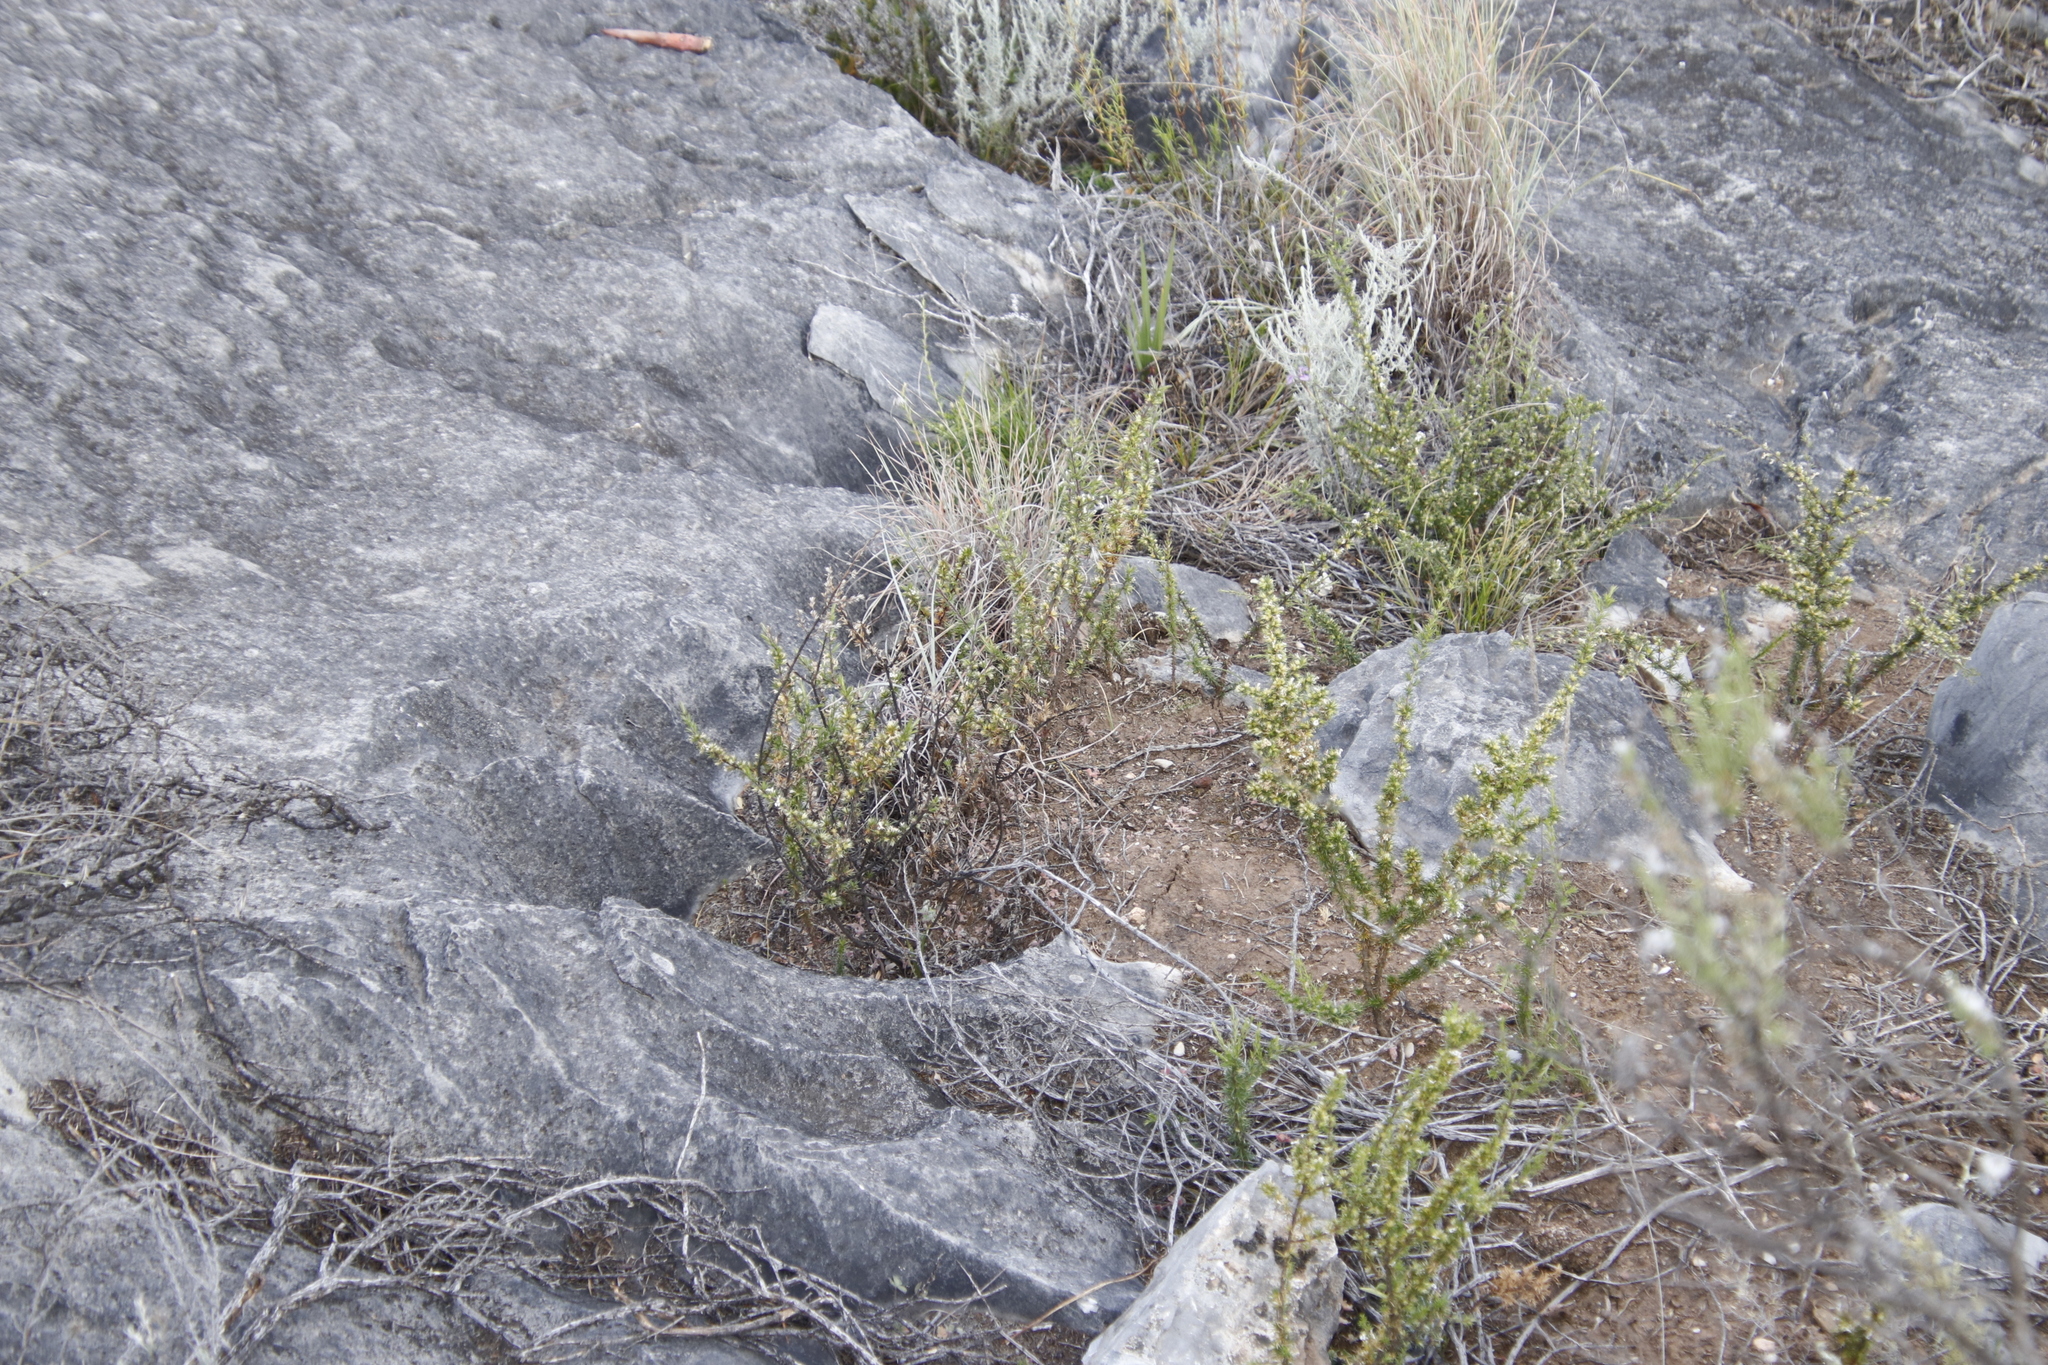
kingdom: Plantae
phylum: Tracheophyta
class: Magnoliopsida
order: Fabales
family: Polygalaceae
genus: Muraltia
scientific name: Muraltia ericifolia
